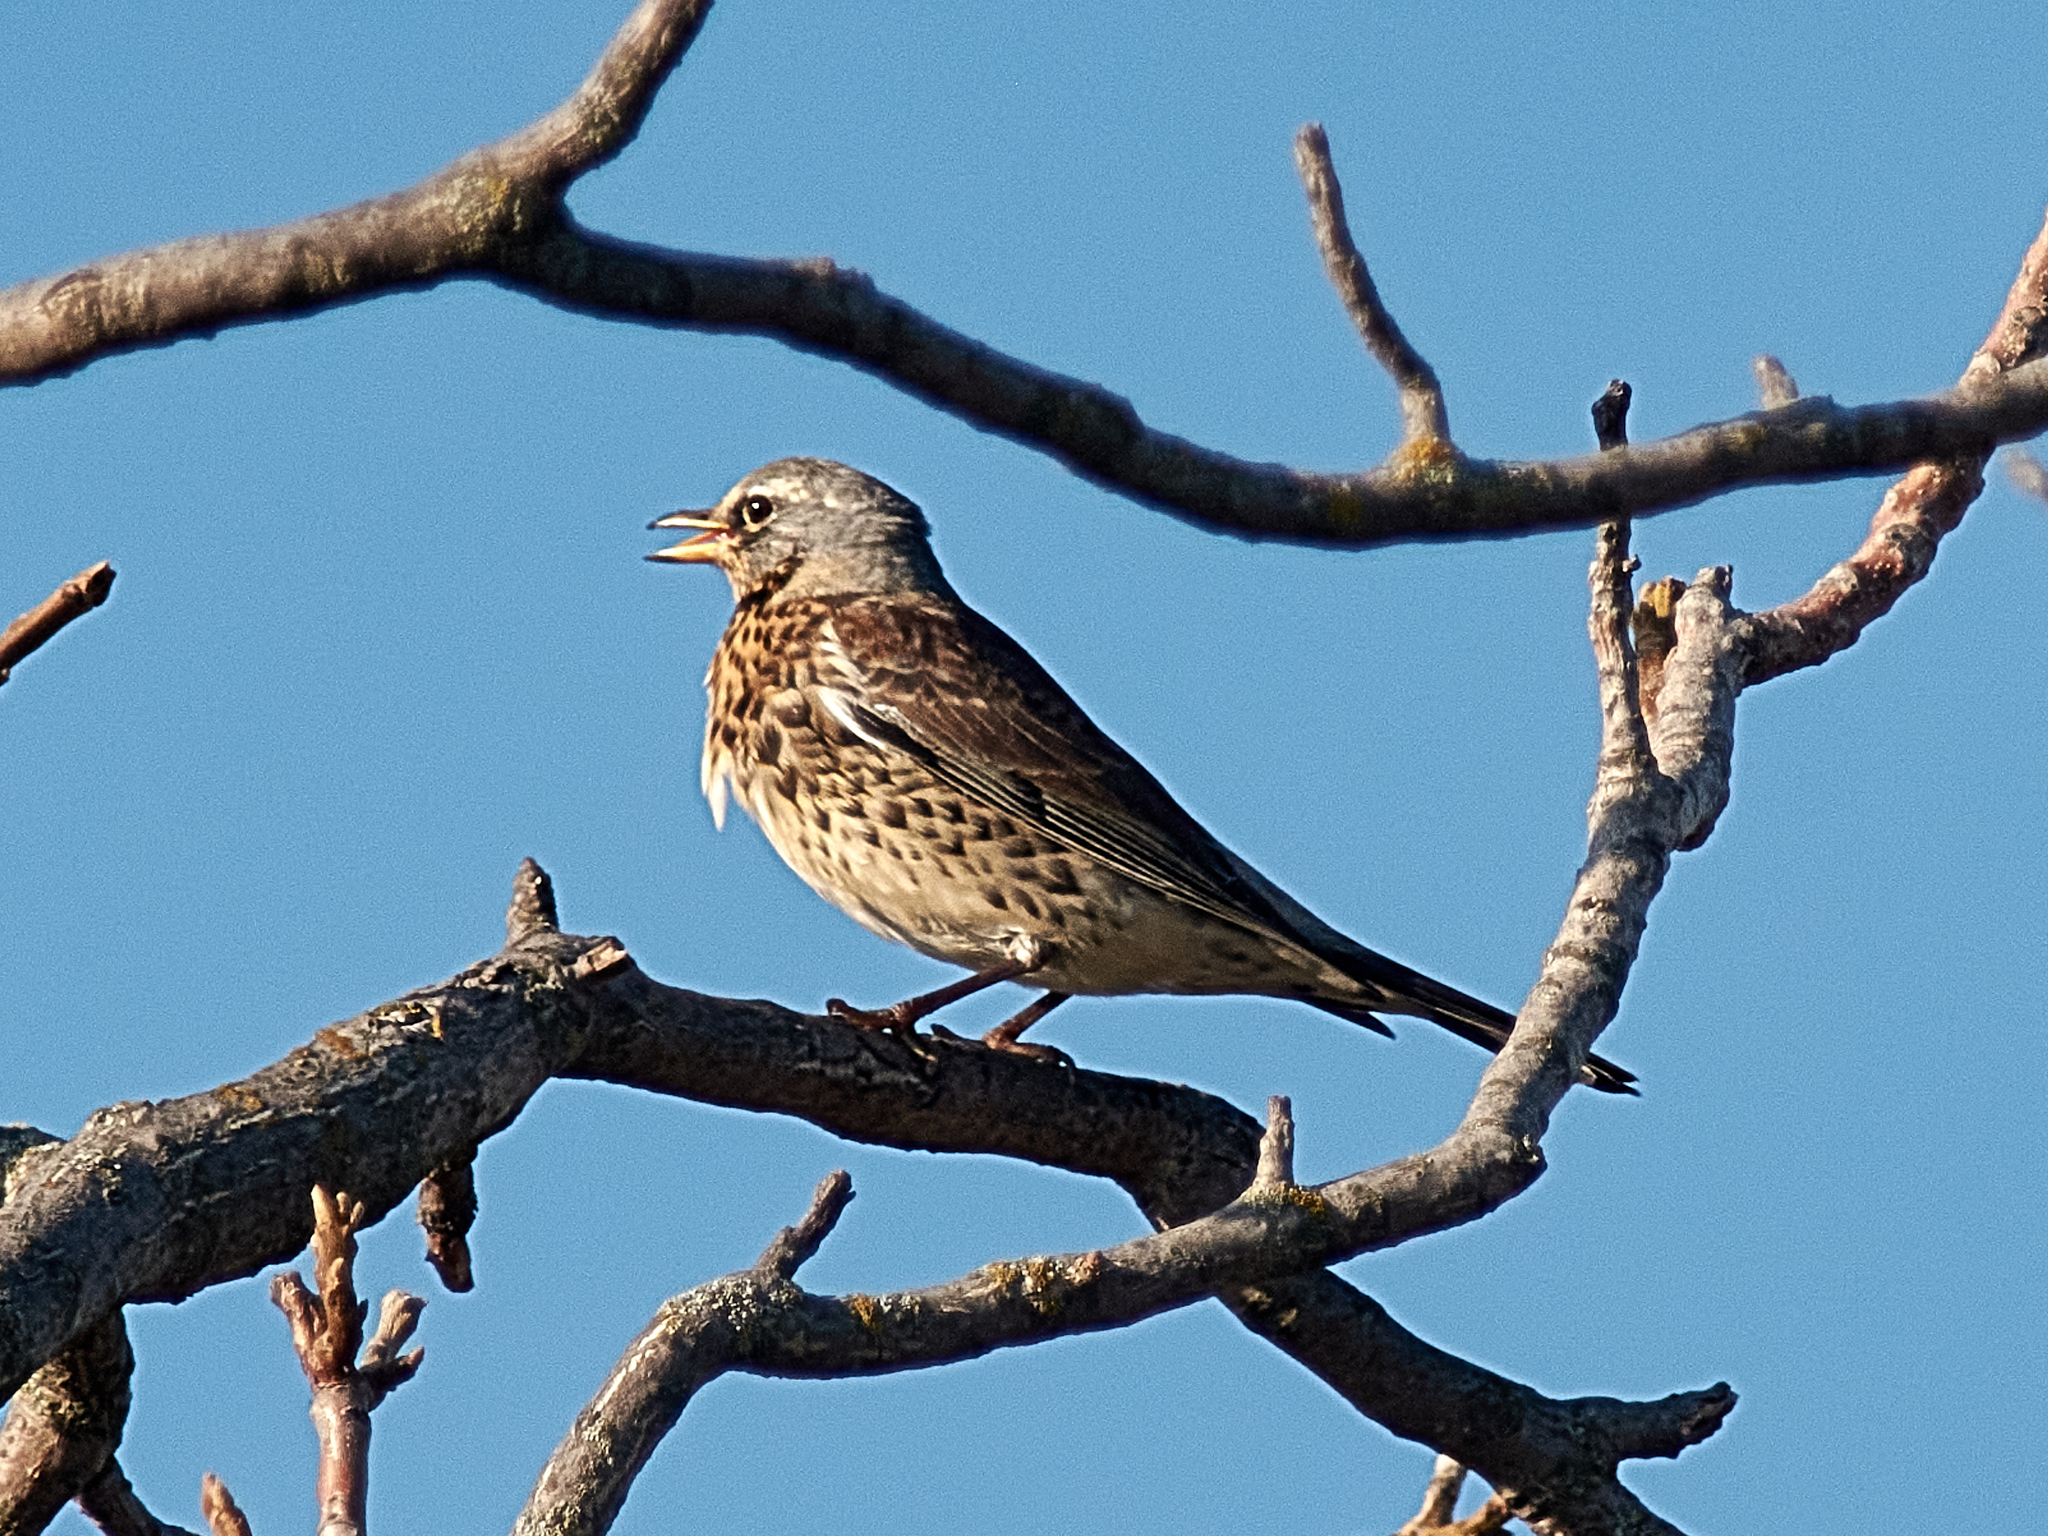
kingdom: Animalia
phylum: Chordata
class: Aves
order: Passeriformes
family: Turdidae
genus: Turdus
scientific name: Turdus pilaris
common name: Fieldfare
